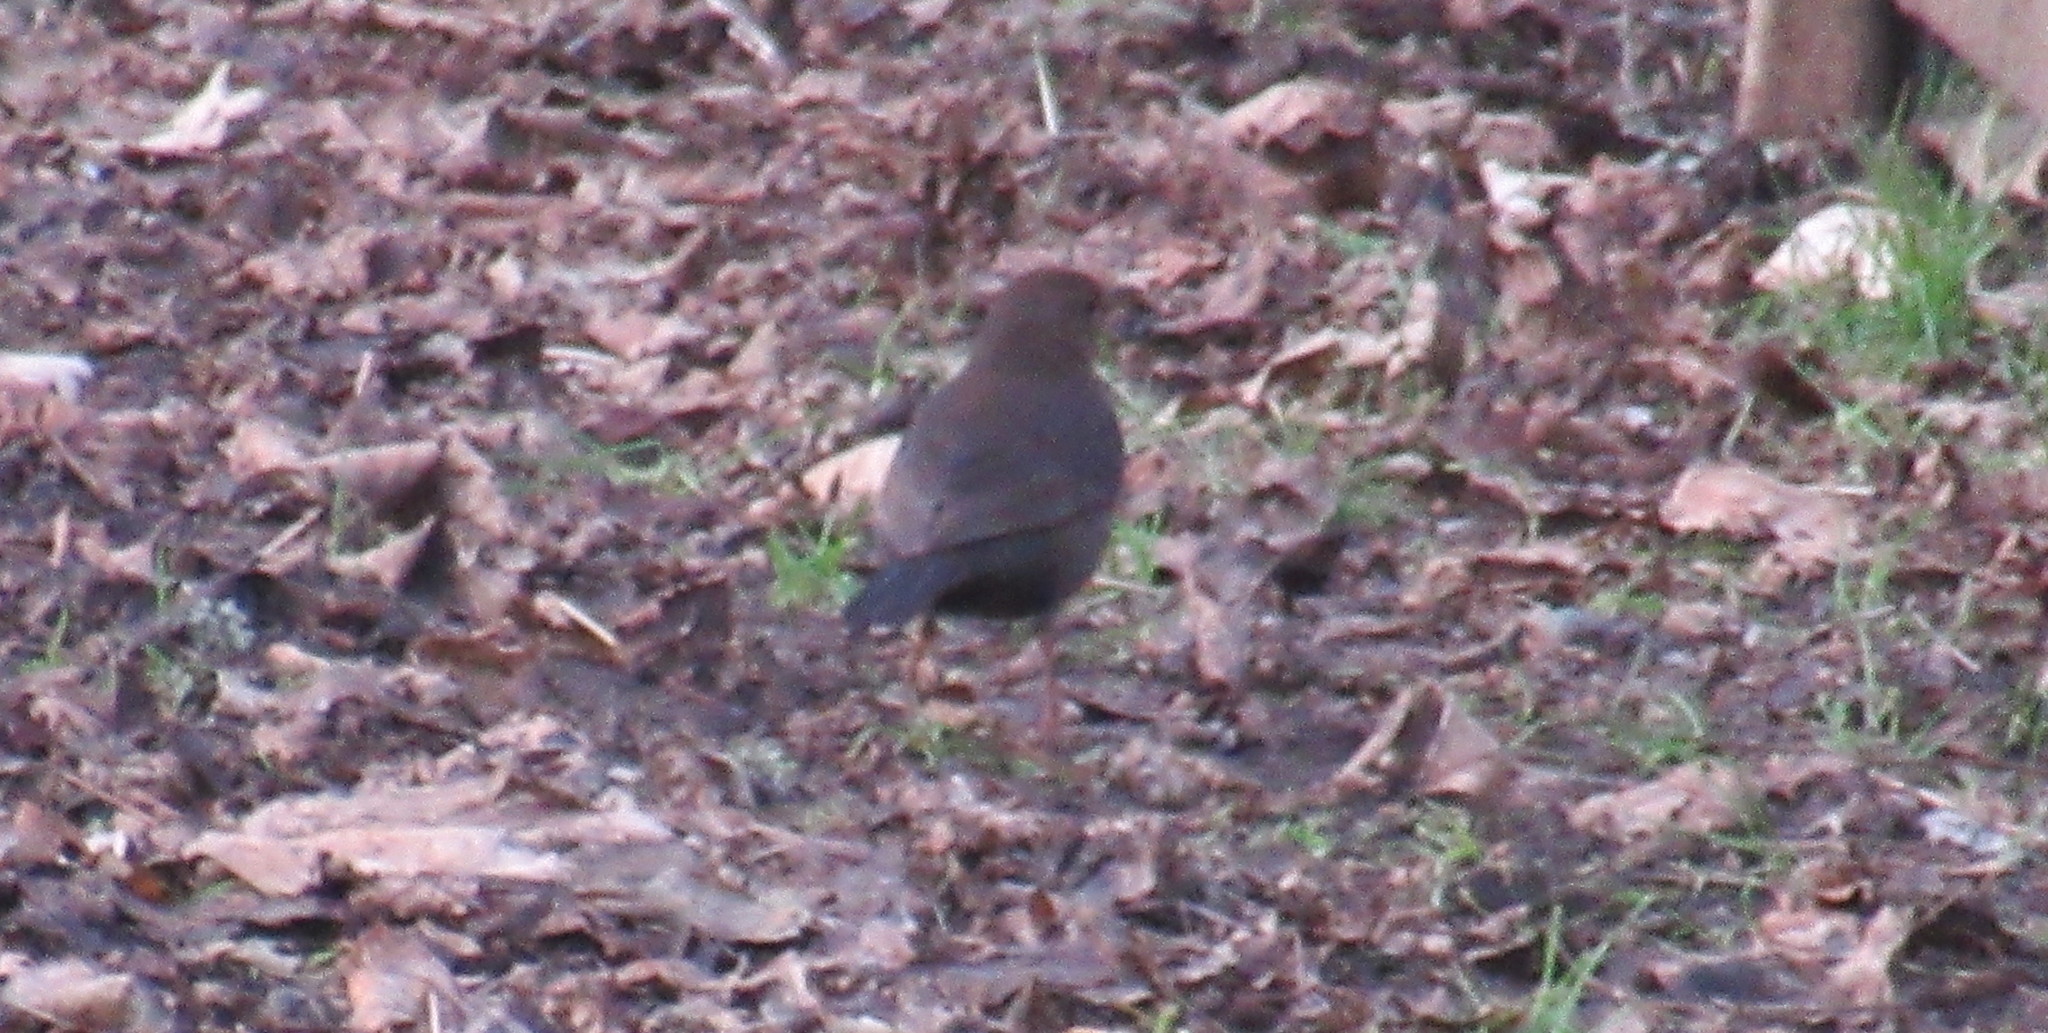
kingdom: Animalia
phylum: Chordata
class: Aves
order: Passeriformes
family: Turdidae
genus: Turdus
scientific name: Turdus merula
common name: Common blackbird
